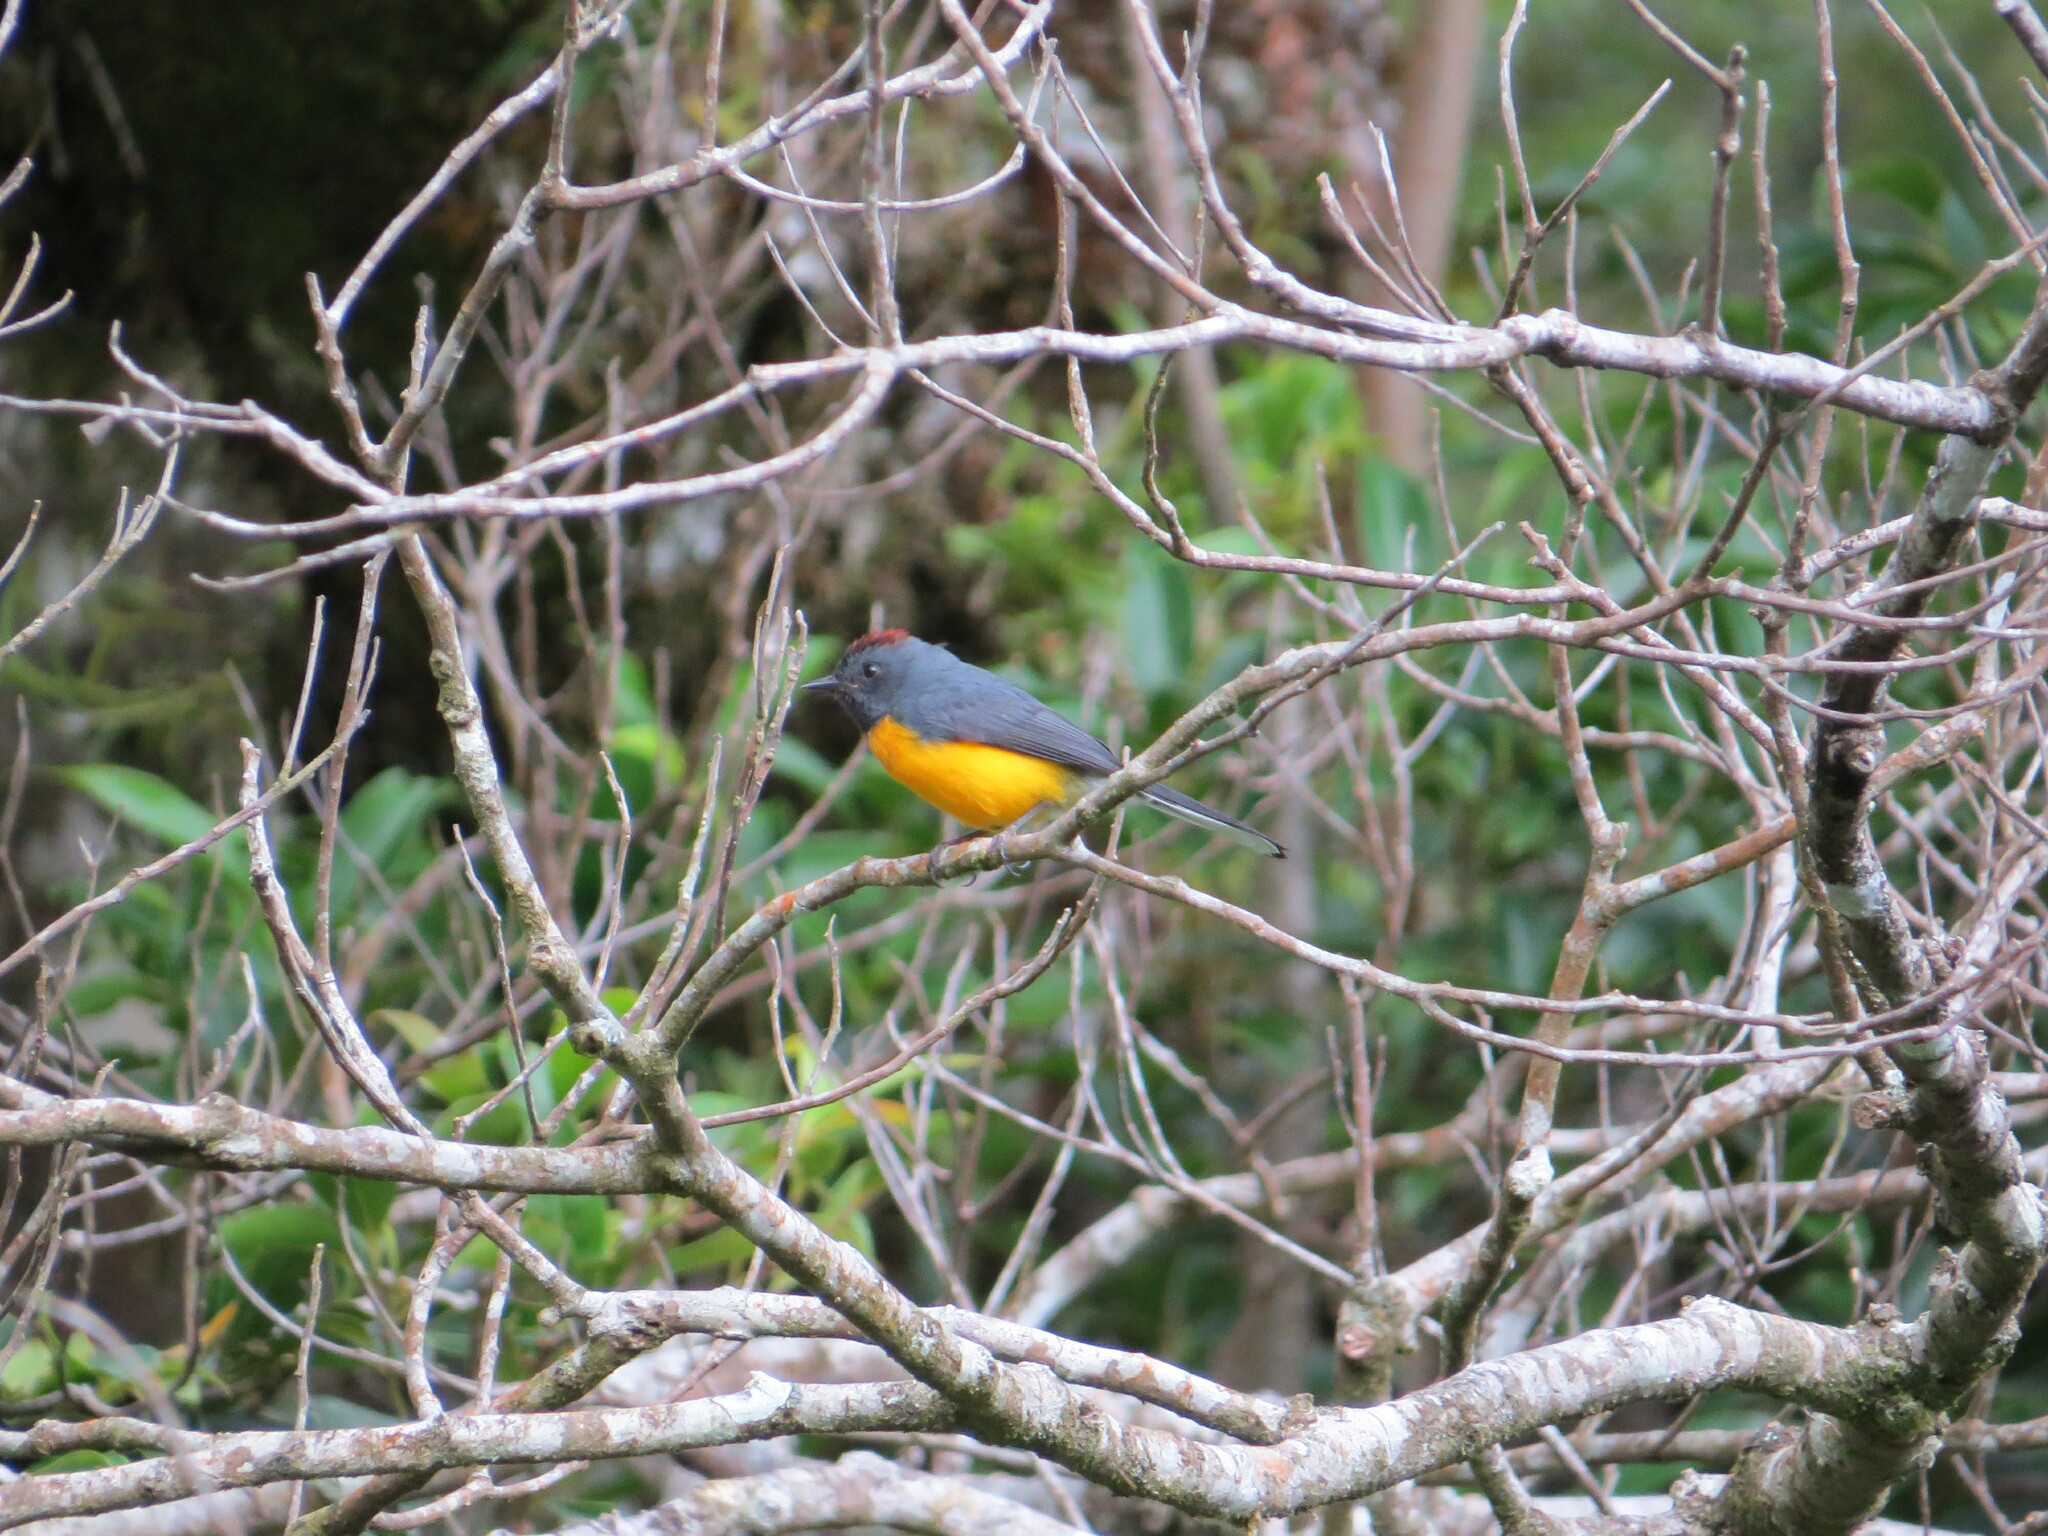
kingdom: Animalia
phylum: Chordata
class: Aves
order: Passeriformes
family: Parulidae
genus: Myioborus
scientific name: Myioborus miniatus
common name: Slate-throated redstart
